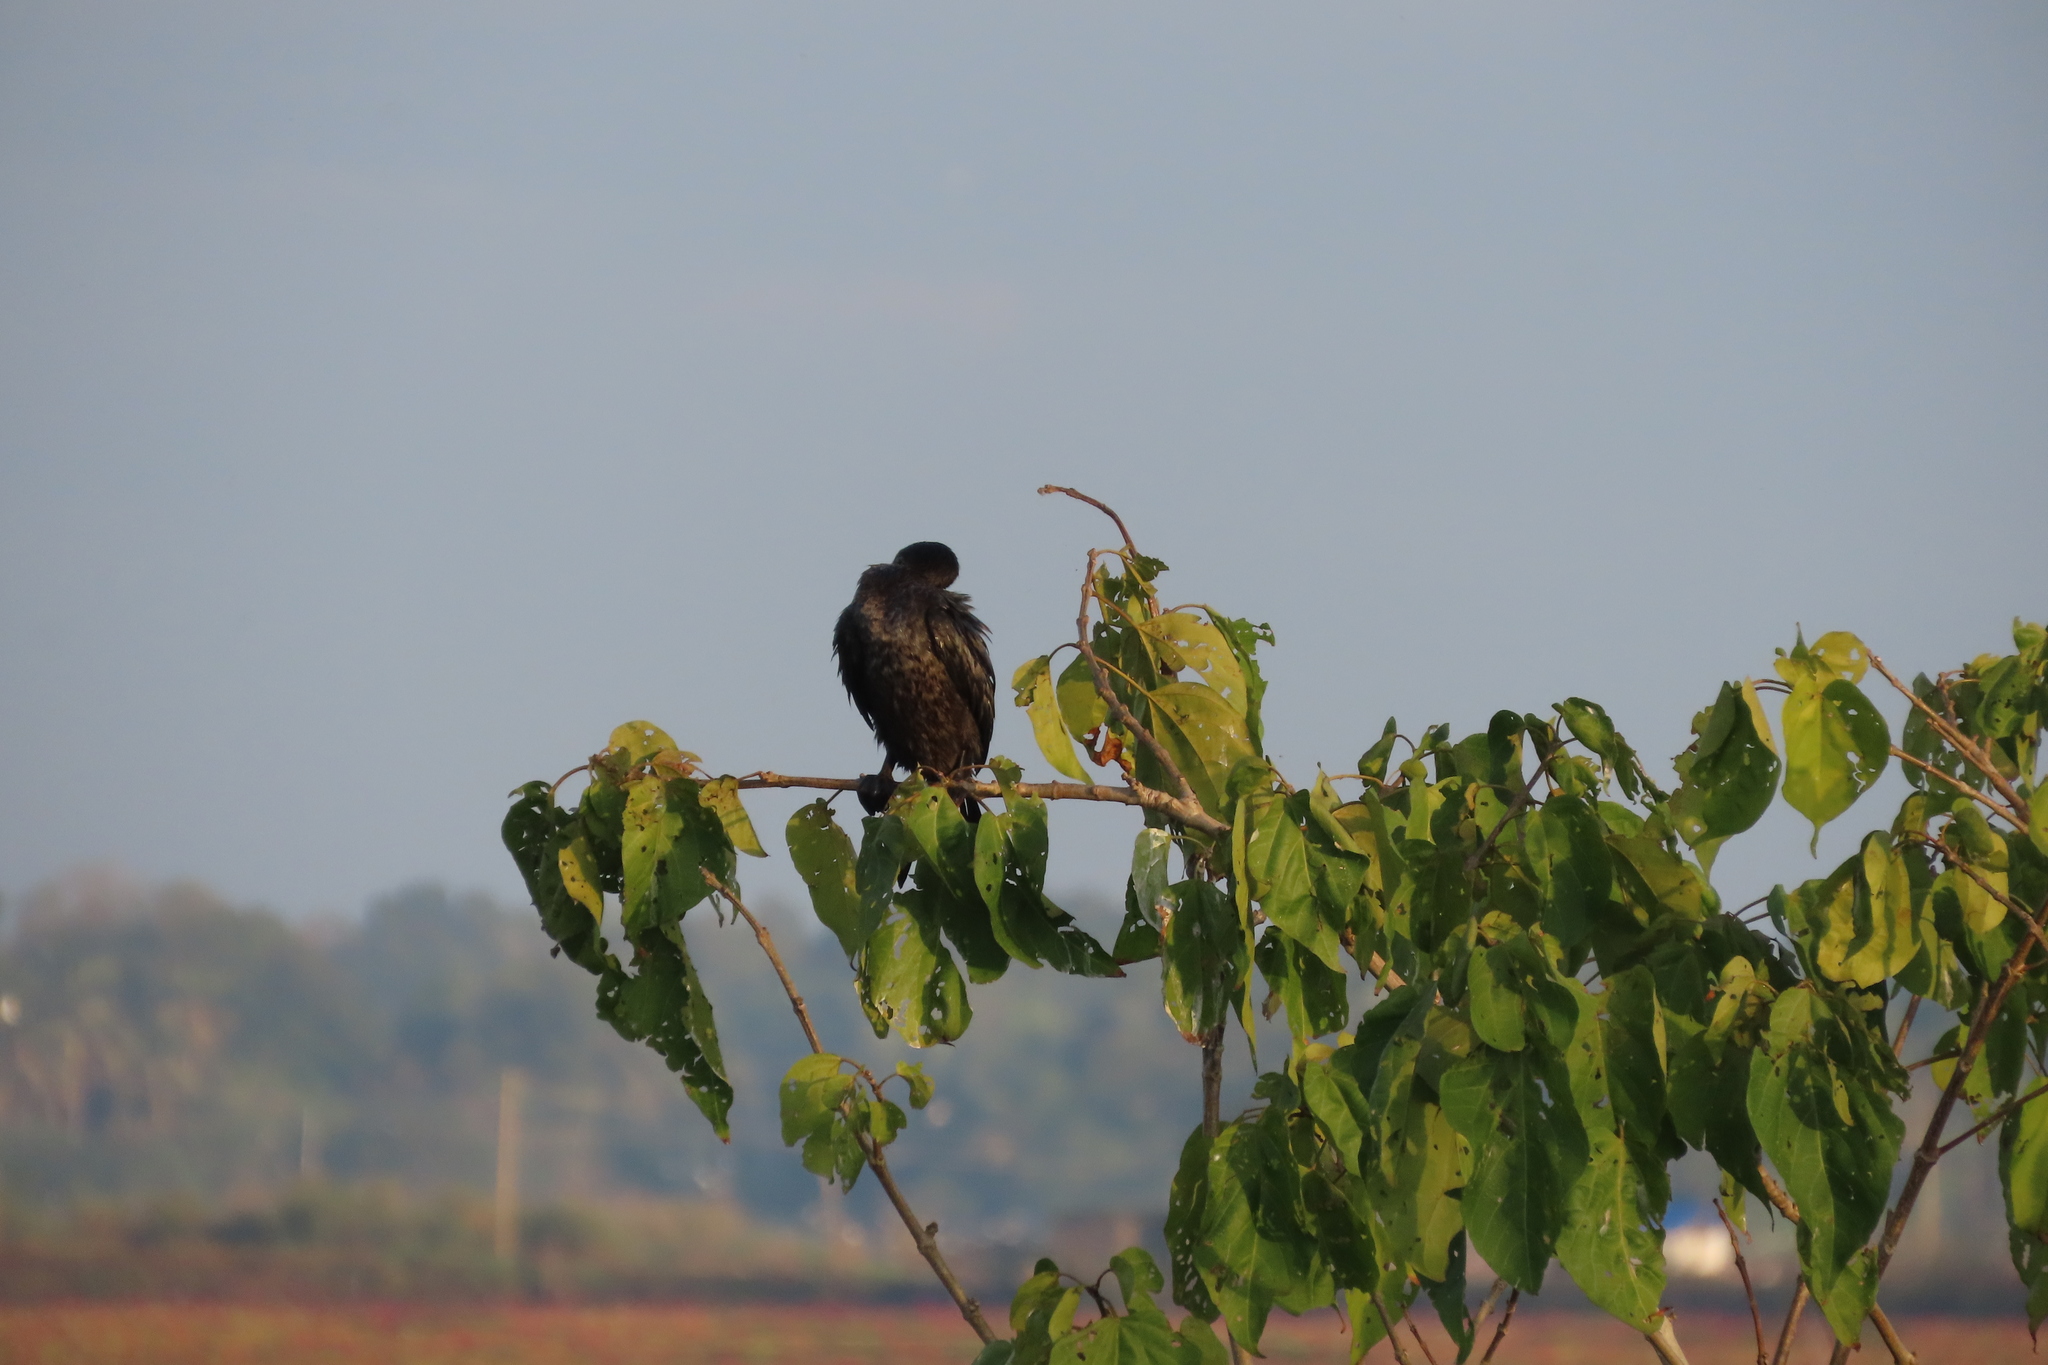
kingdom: Animalia
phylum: Chordata
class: Aves
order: Suliformes
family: Phalacrocoracidae
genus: Microcarbo
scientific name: Microcarbo niger
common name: Little cormorant
